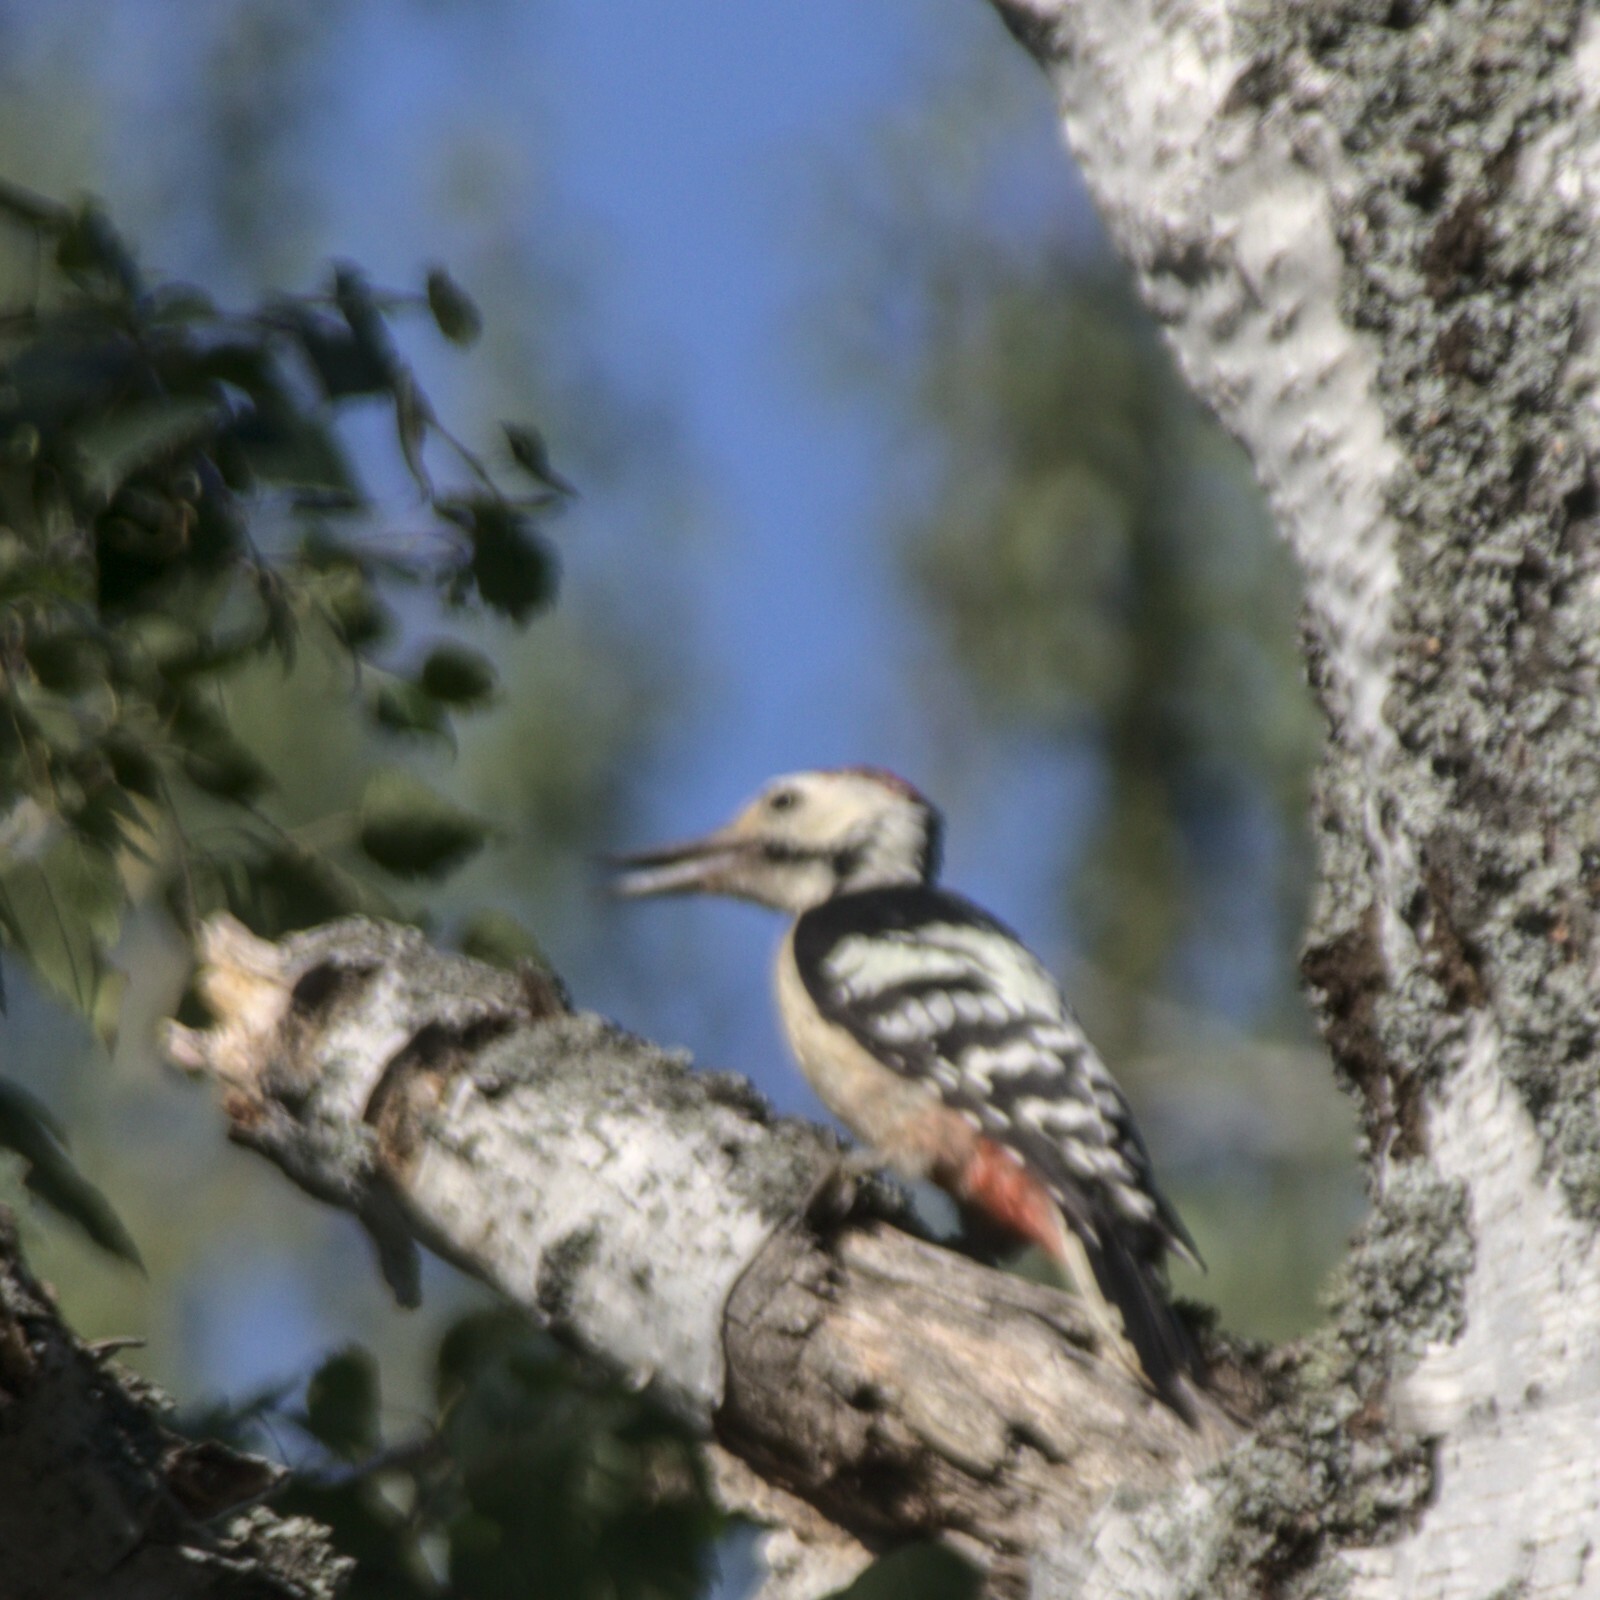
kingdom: Animalia
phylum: Chordata
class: Aves
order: Piciformes
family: Picidae
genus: Dendrocopos
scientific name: Dendrocopos leucotos
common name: White-backed woodpecker
